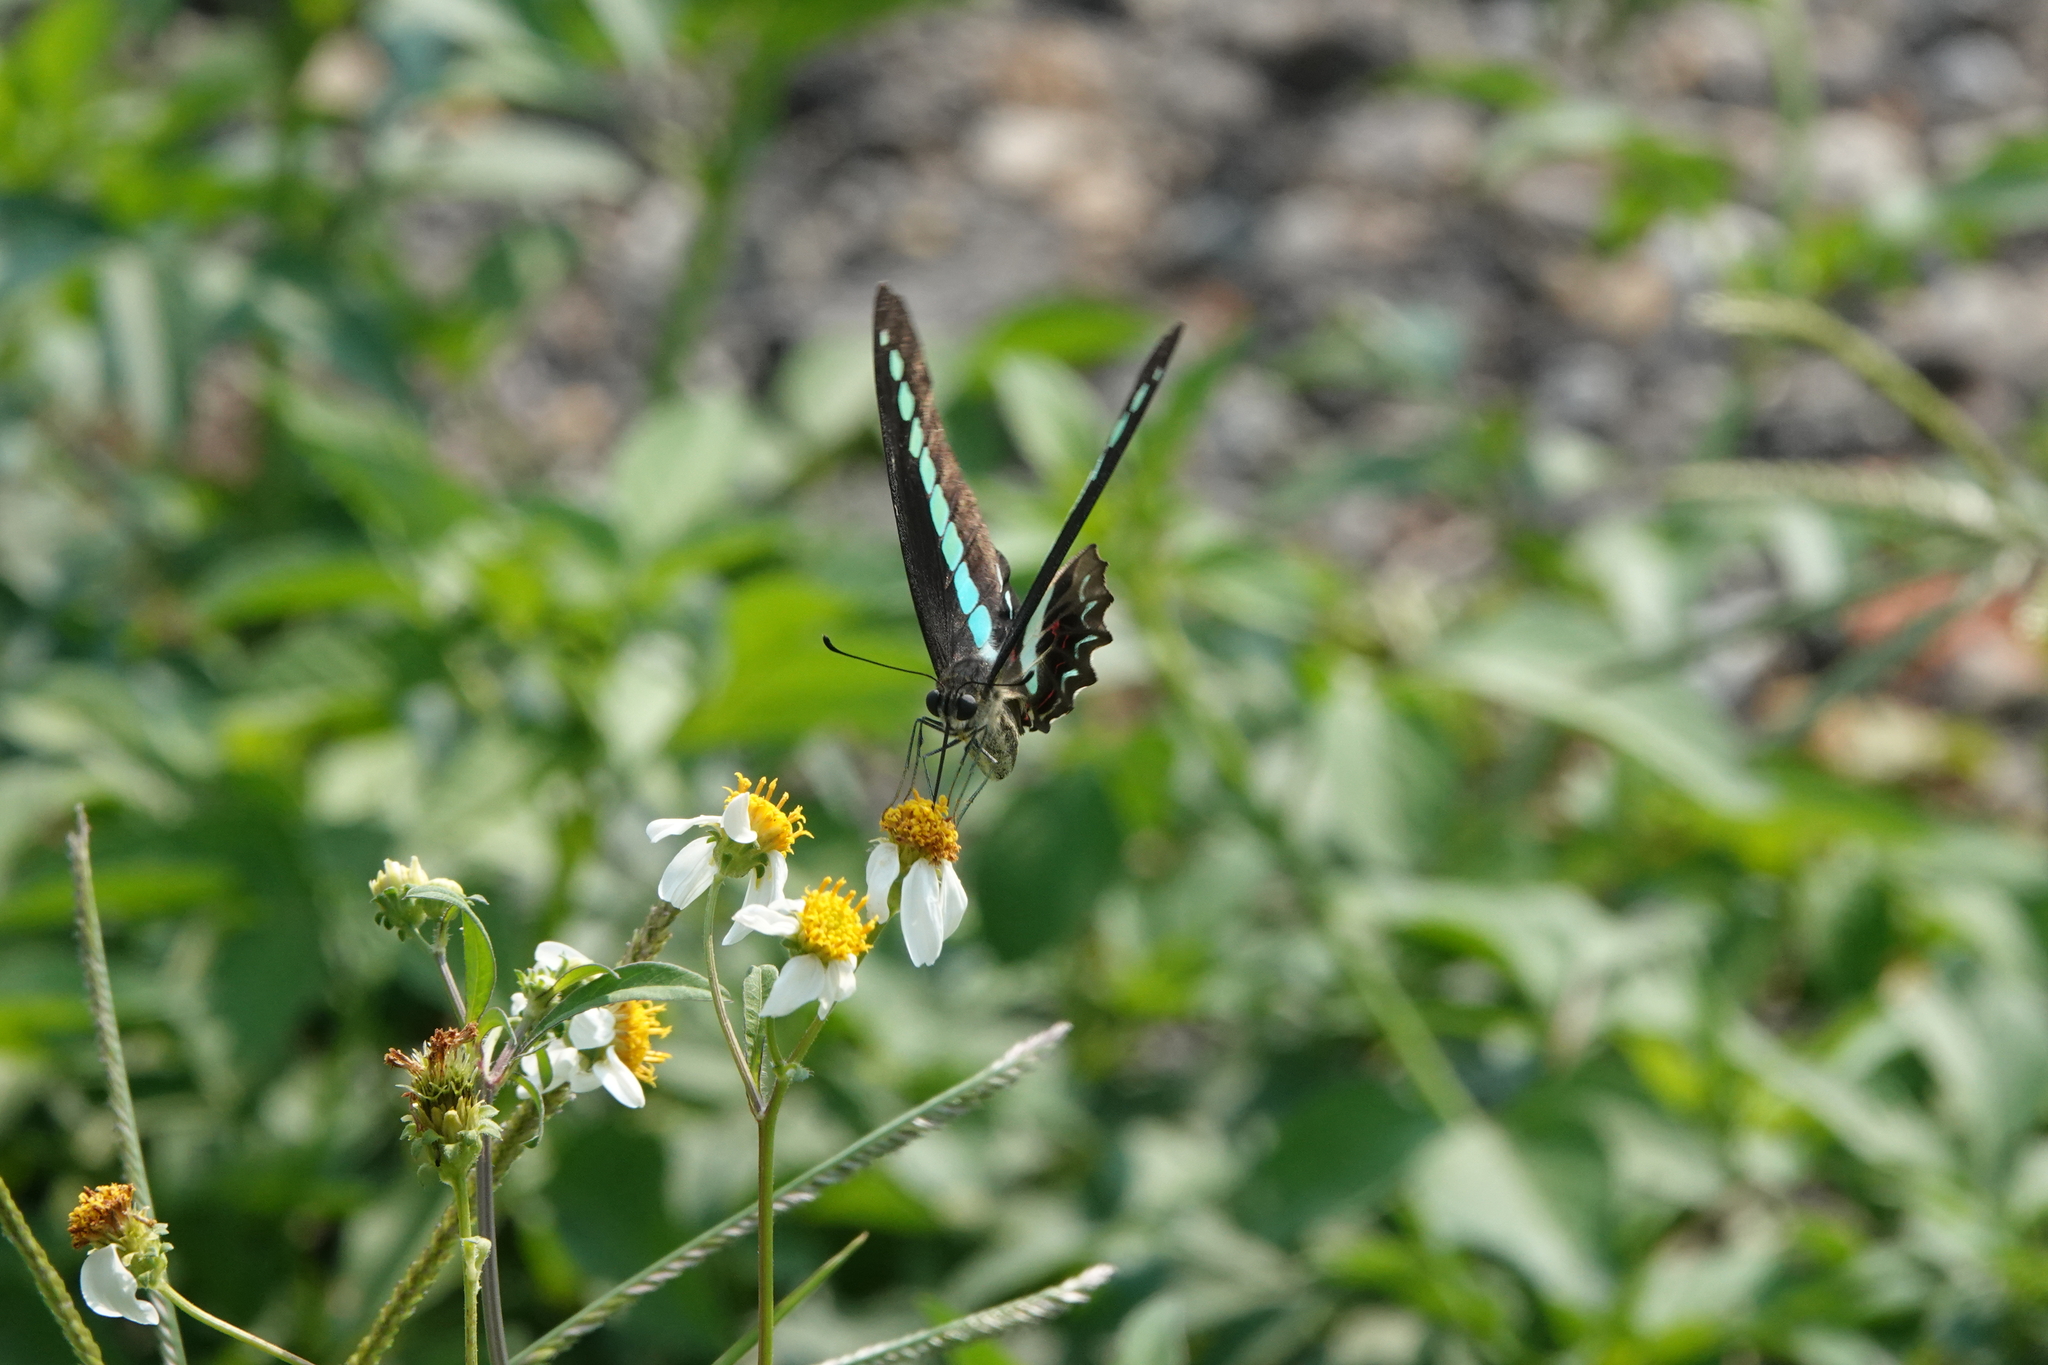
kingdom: Fungi
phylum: Ascomycota
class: Sordariomycetes
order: Microascales
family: Microascaceae
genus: Graphium
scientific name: Graphium sarpedon
